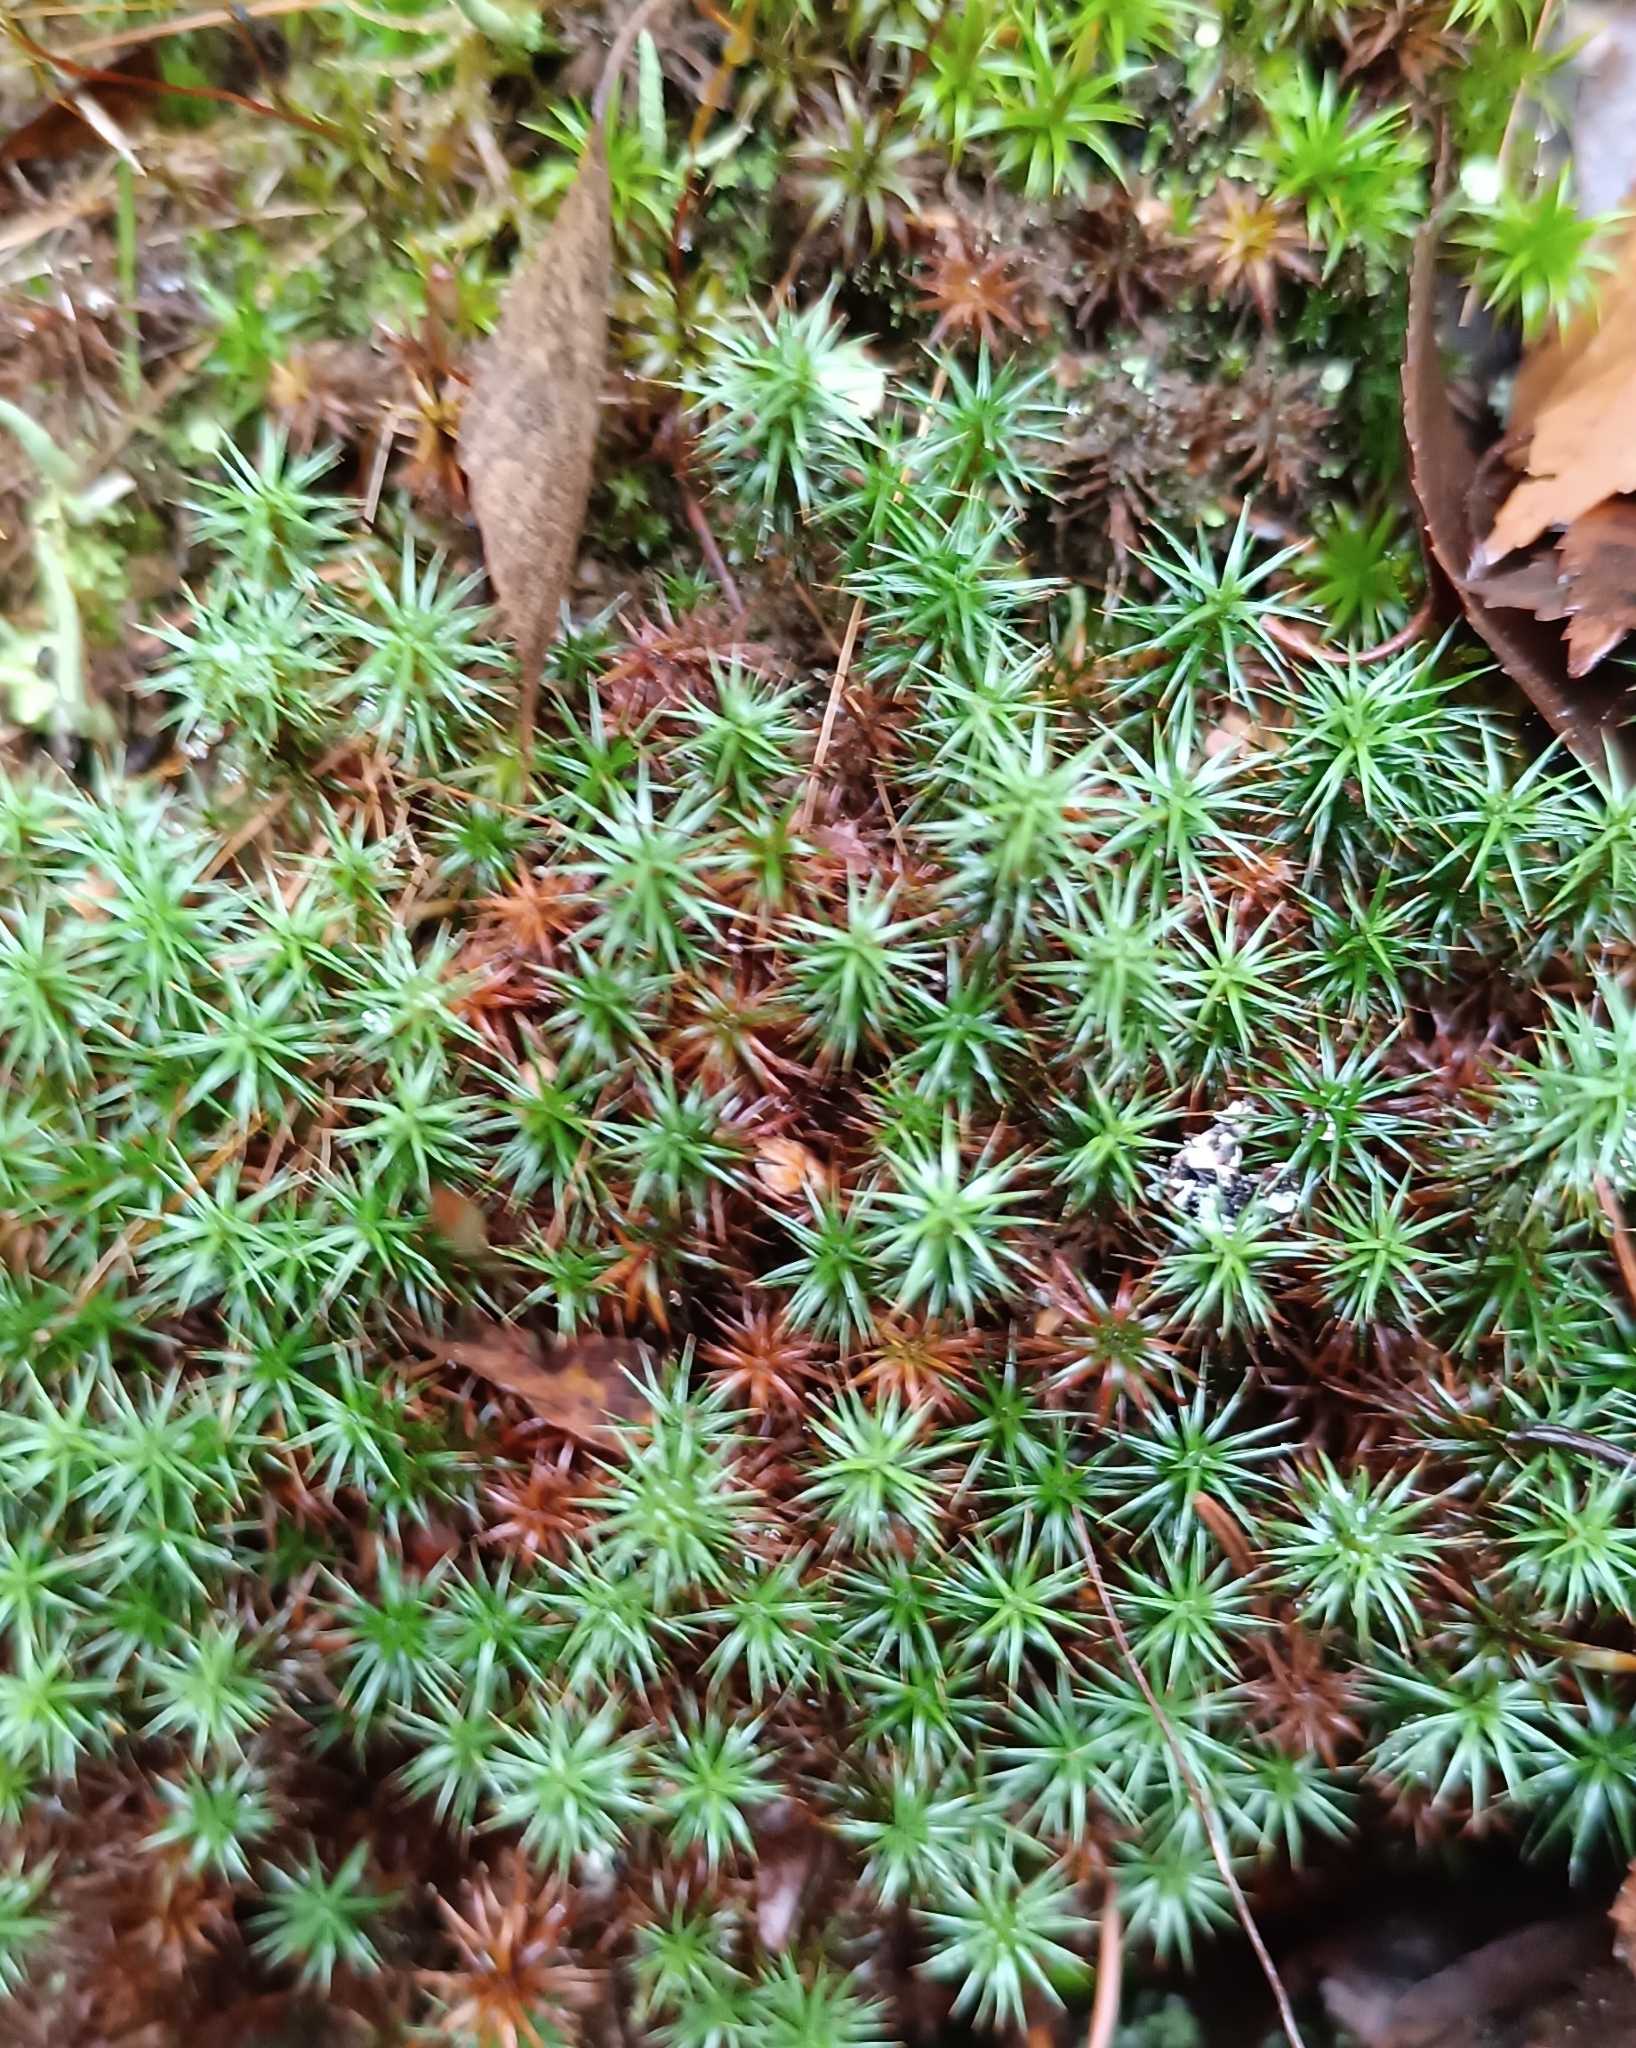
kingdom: Plantae
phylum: Bryophyta
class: Polytrichopsida
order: Polytrichales
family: Polytrichaceae
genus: Polytrichum
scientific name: Polytrichum juniperinum
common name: Juniper haircap moss
